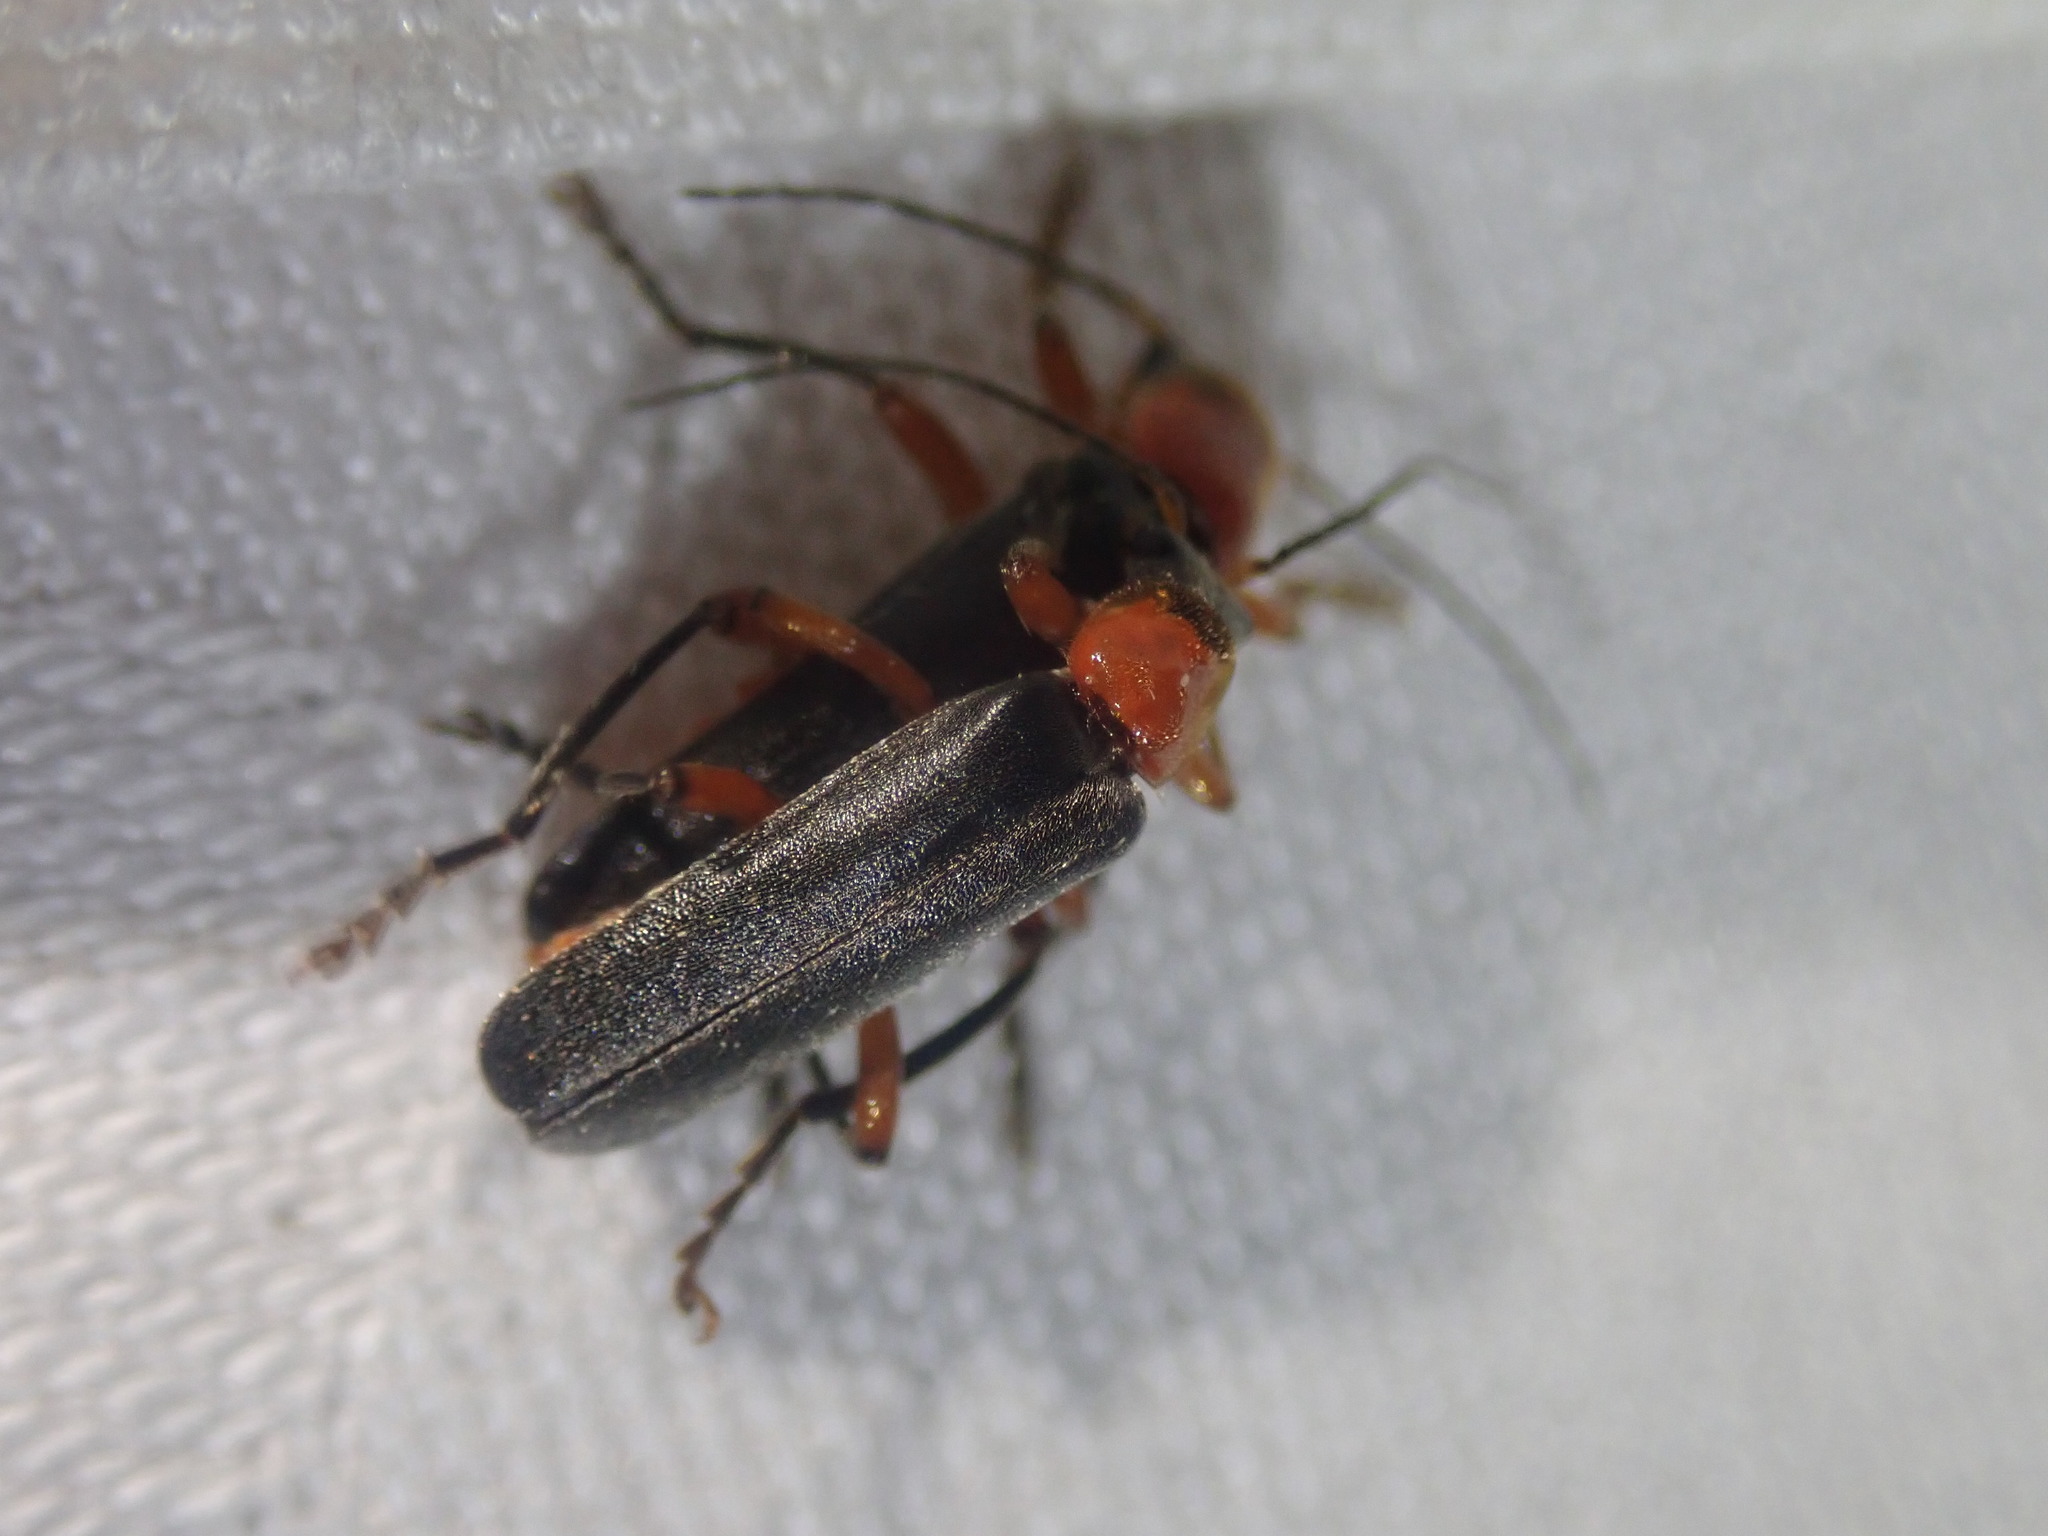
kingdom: Animalia
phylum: Arthropoda
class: Insecta
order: Coleoptera
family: Cantharidae
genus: Cantharis
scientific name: Cantharis pellucida
